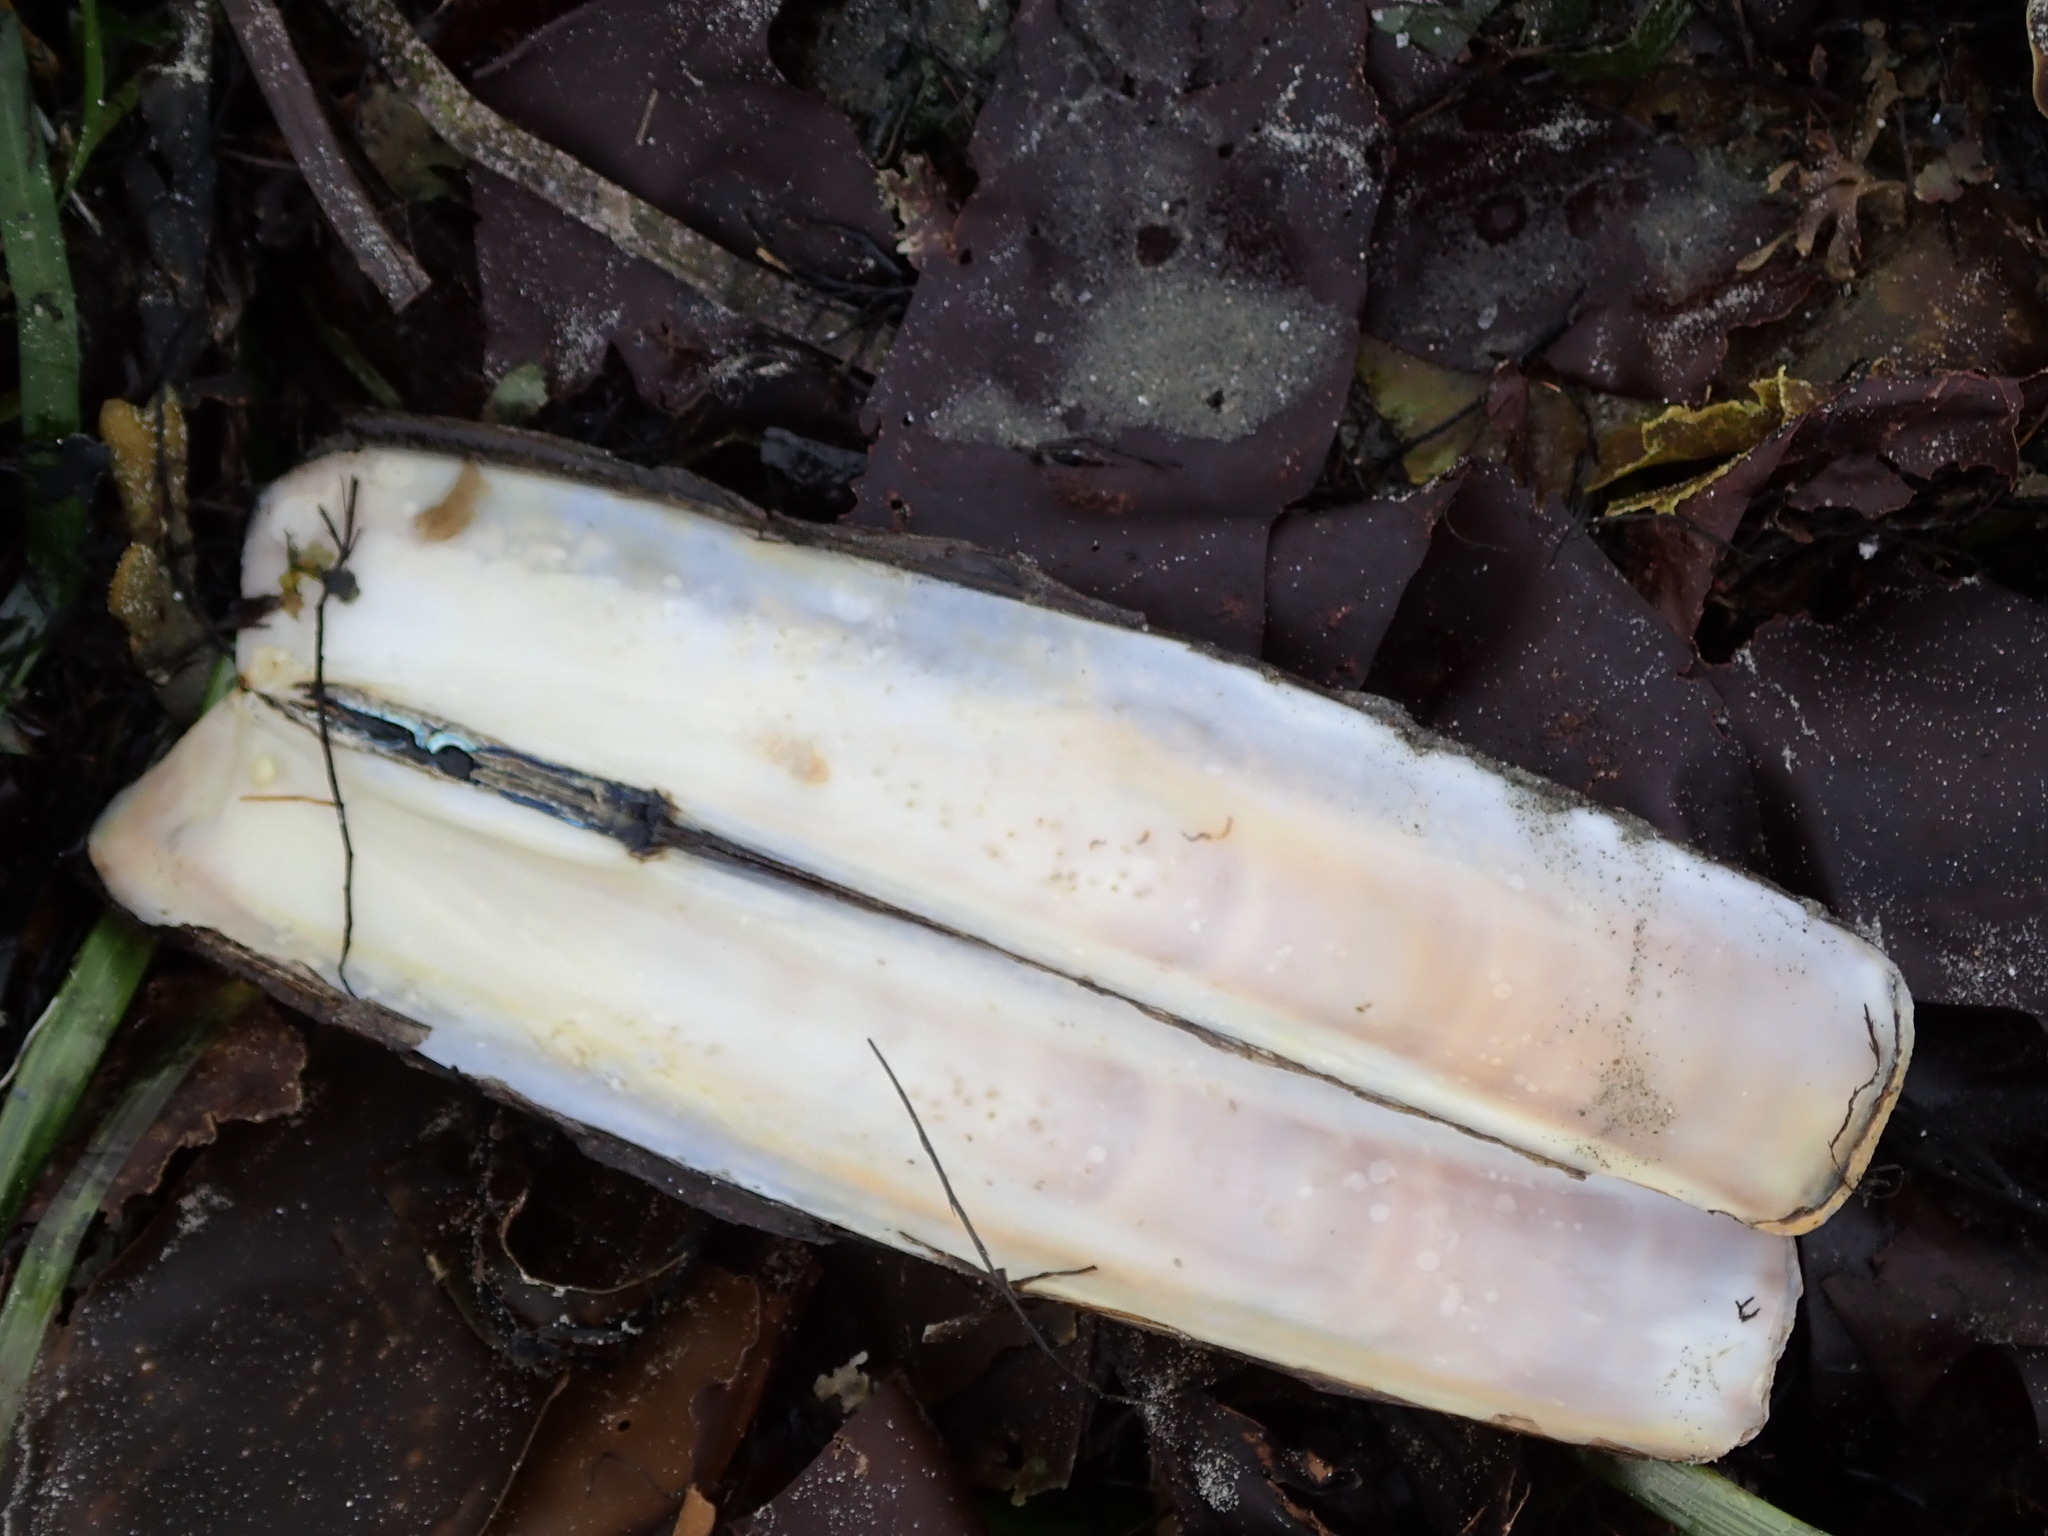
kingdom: Animalia
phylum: Mollusca
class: Bivalvia
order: Adapedonta
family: Pharidae
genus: Ensis
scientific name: Ensis leei
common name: American jack knife clam
